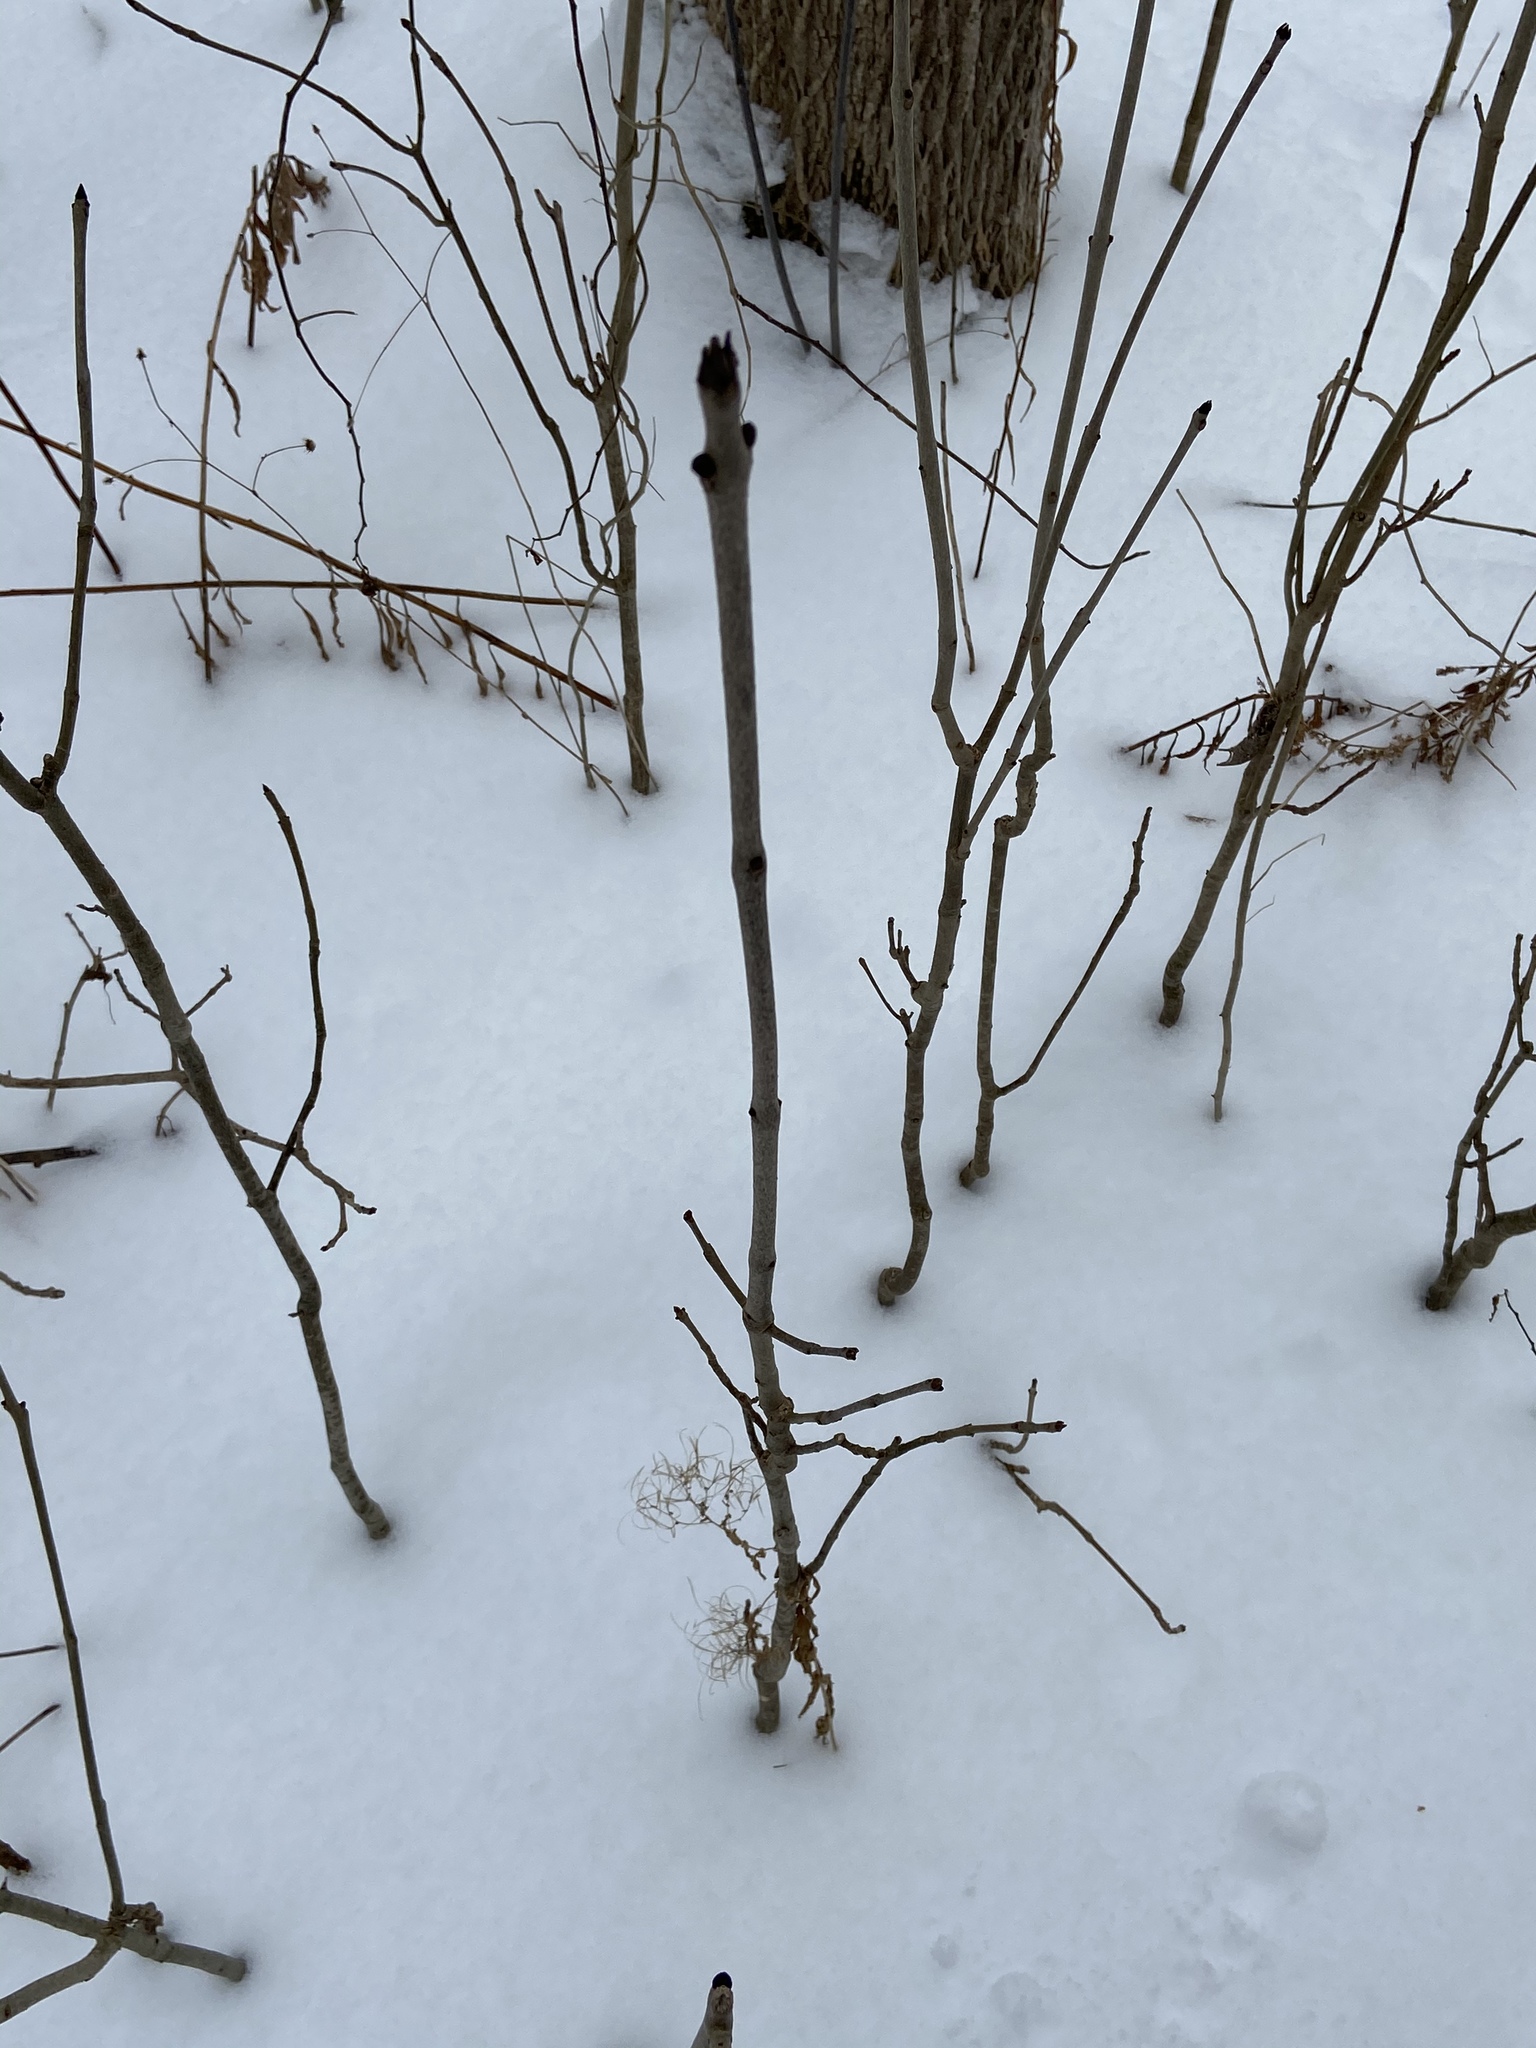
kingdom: Plantae
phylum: Tracheophyta
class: Magnoliopsida
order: Lamiales
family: Oleaceae
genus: Fraxinus
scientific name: Fraxinus nigra
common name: Black ash
